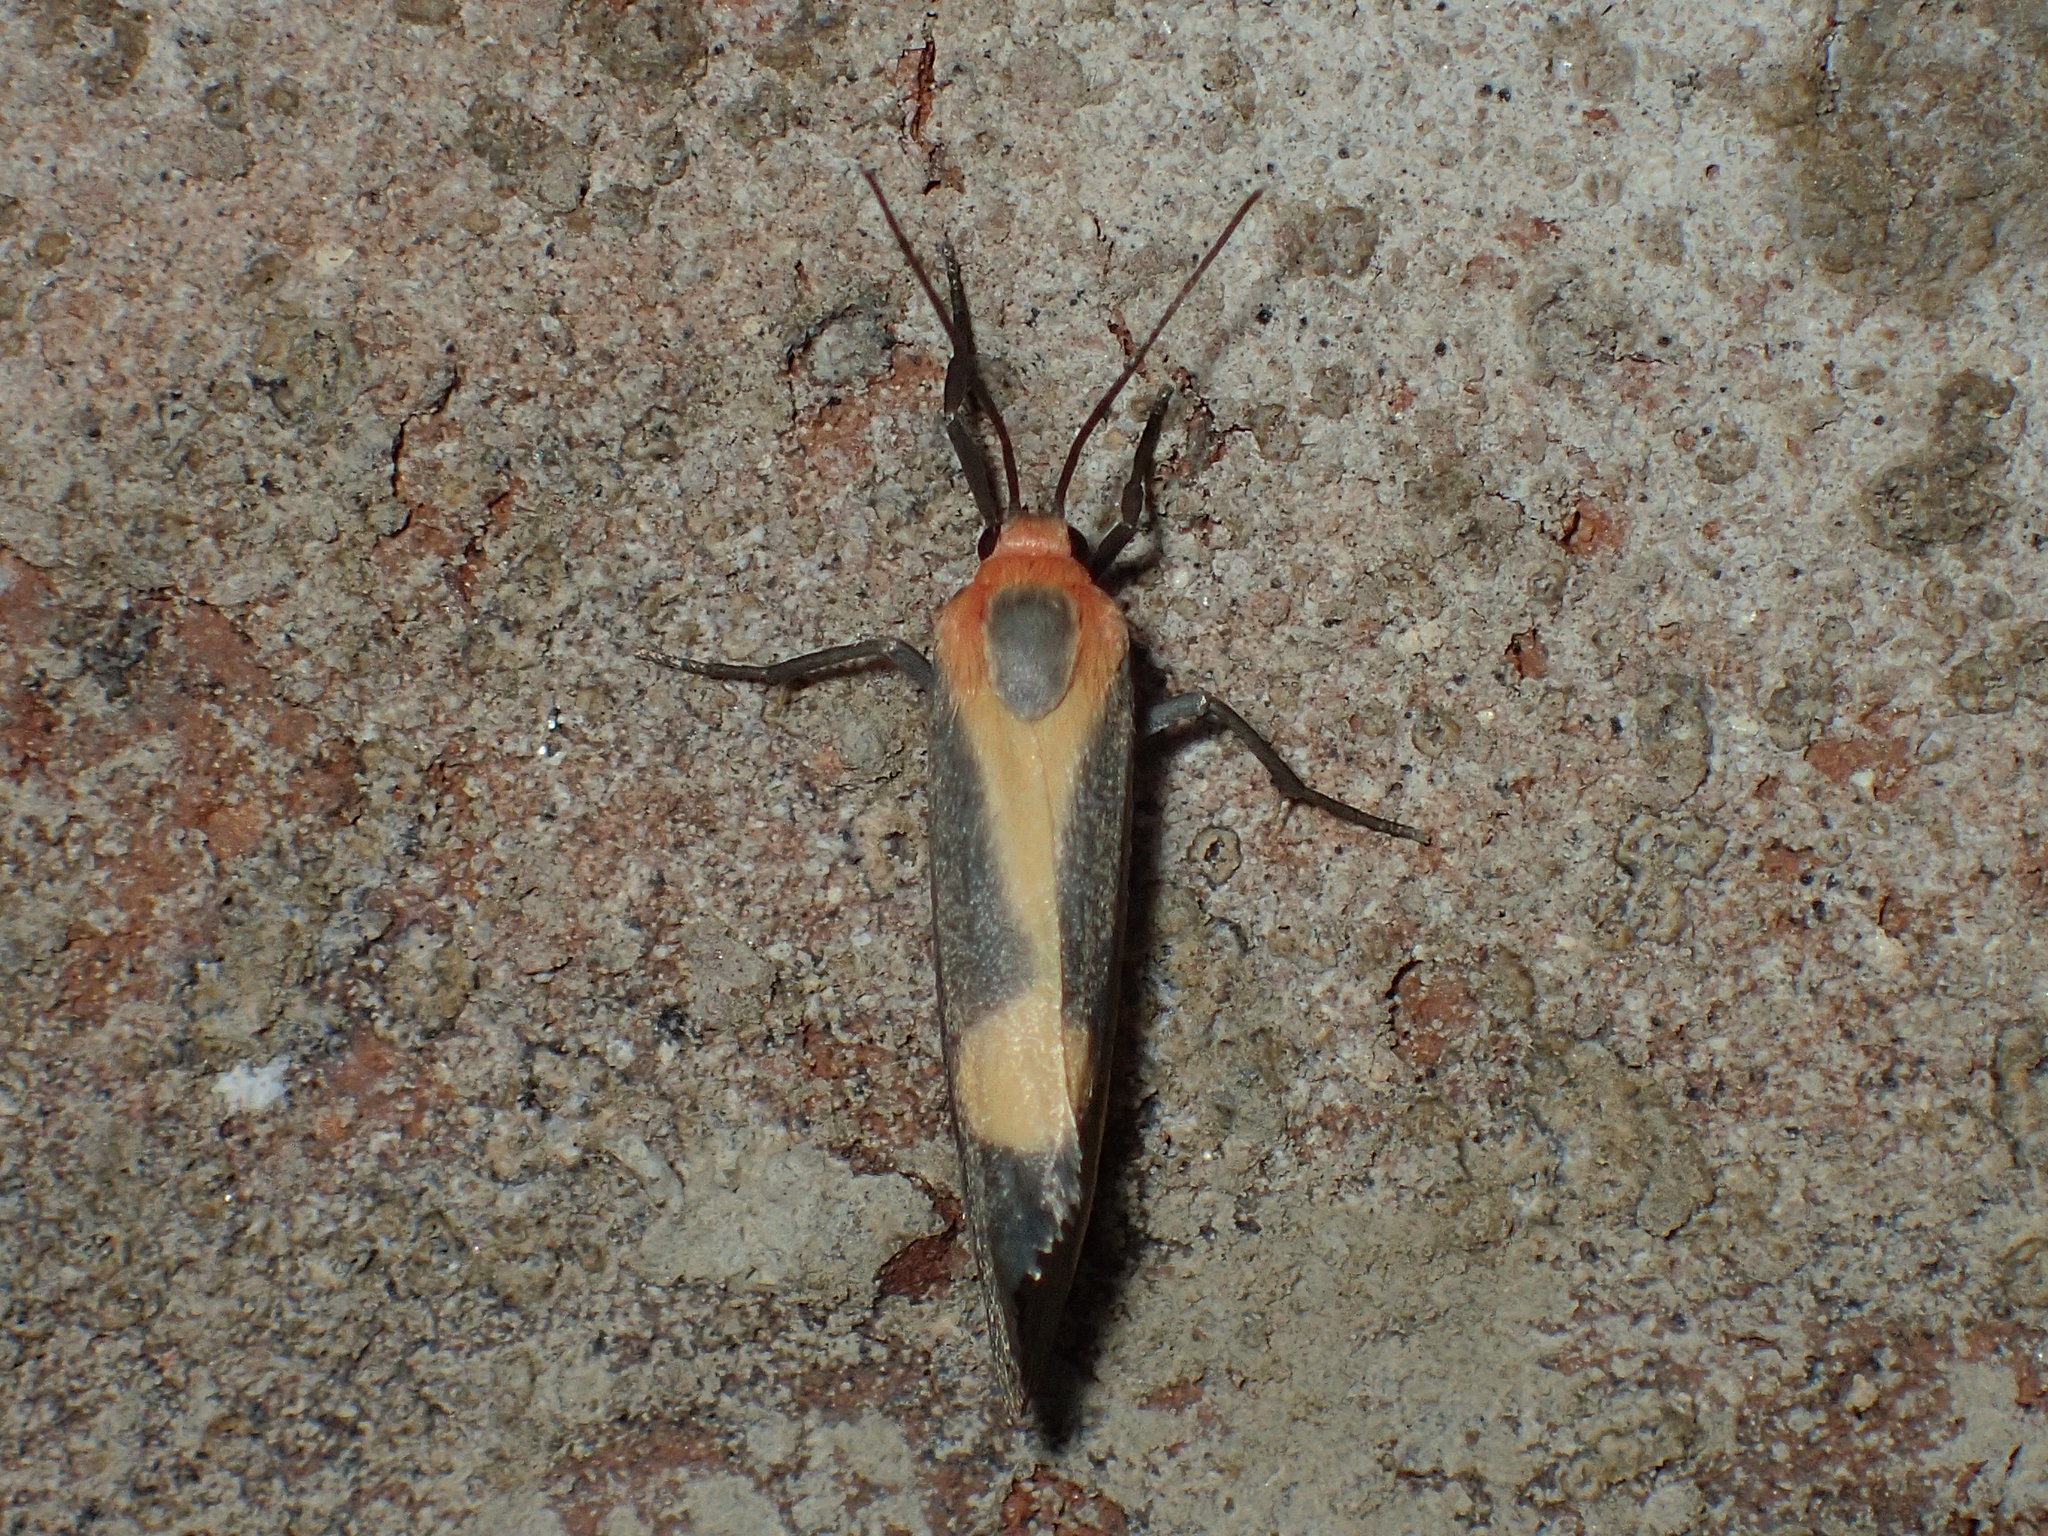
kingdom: Animalia
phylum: Arthropoda
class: Insecta
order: Lepidoptera
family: Erebidae
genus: Cisthene
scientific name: Cisthene plumbea
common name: Lead colored lichen moth
